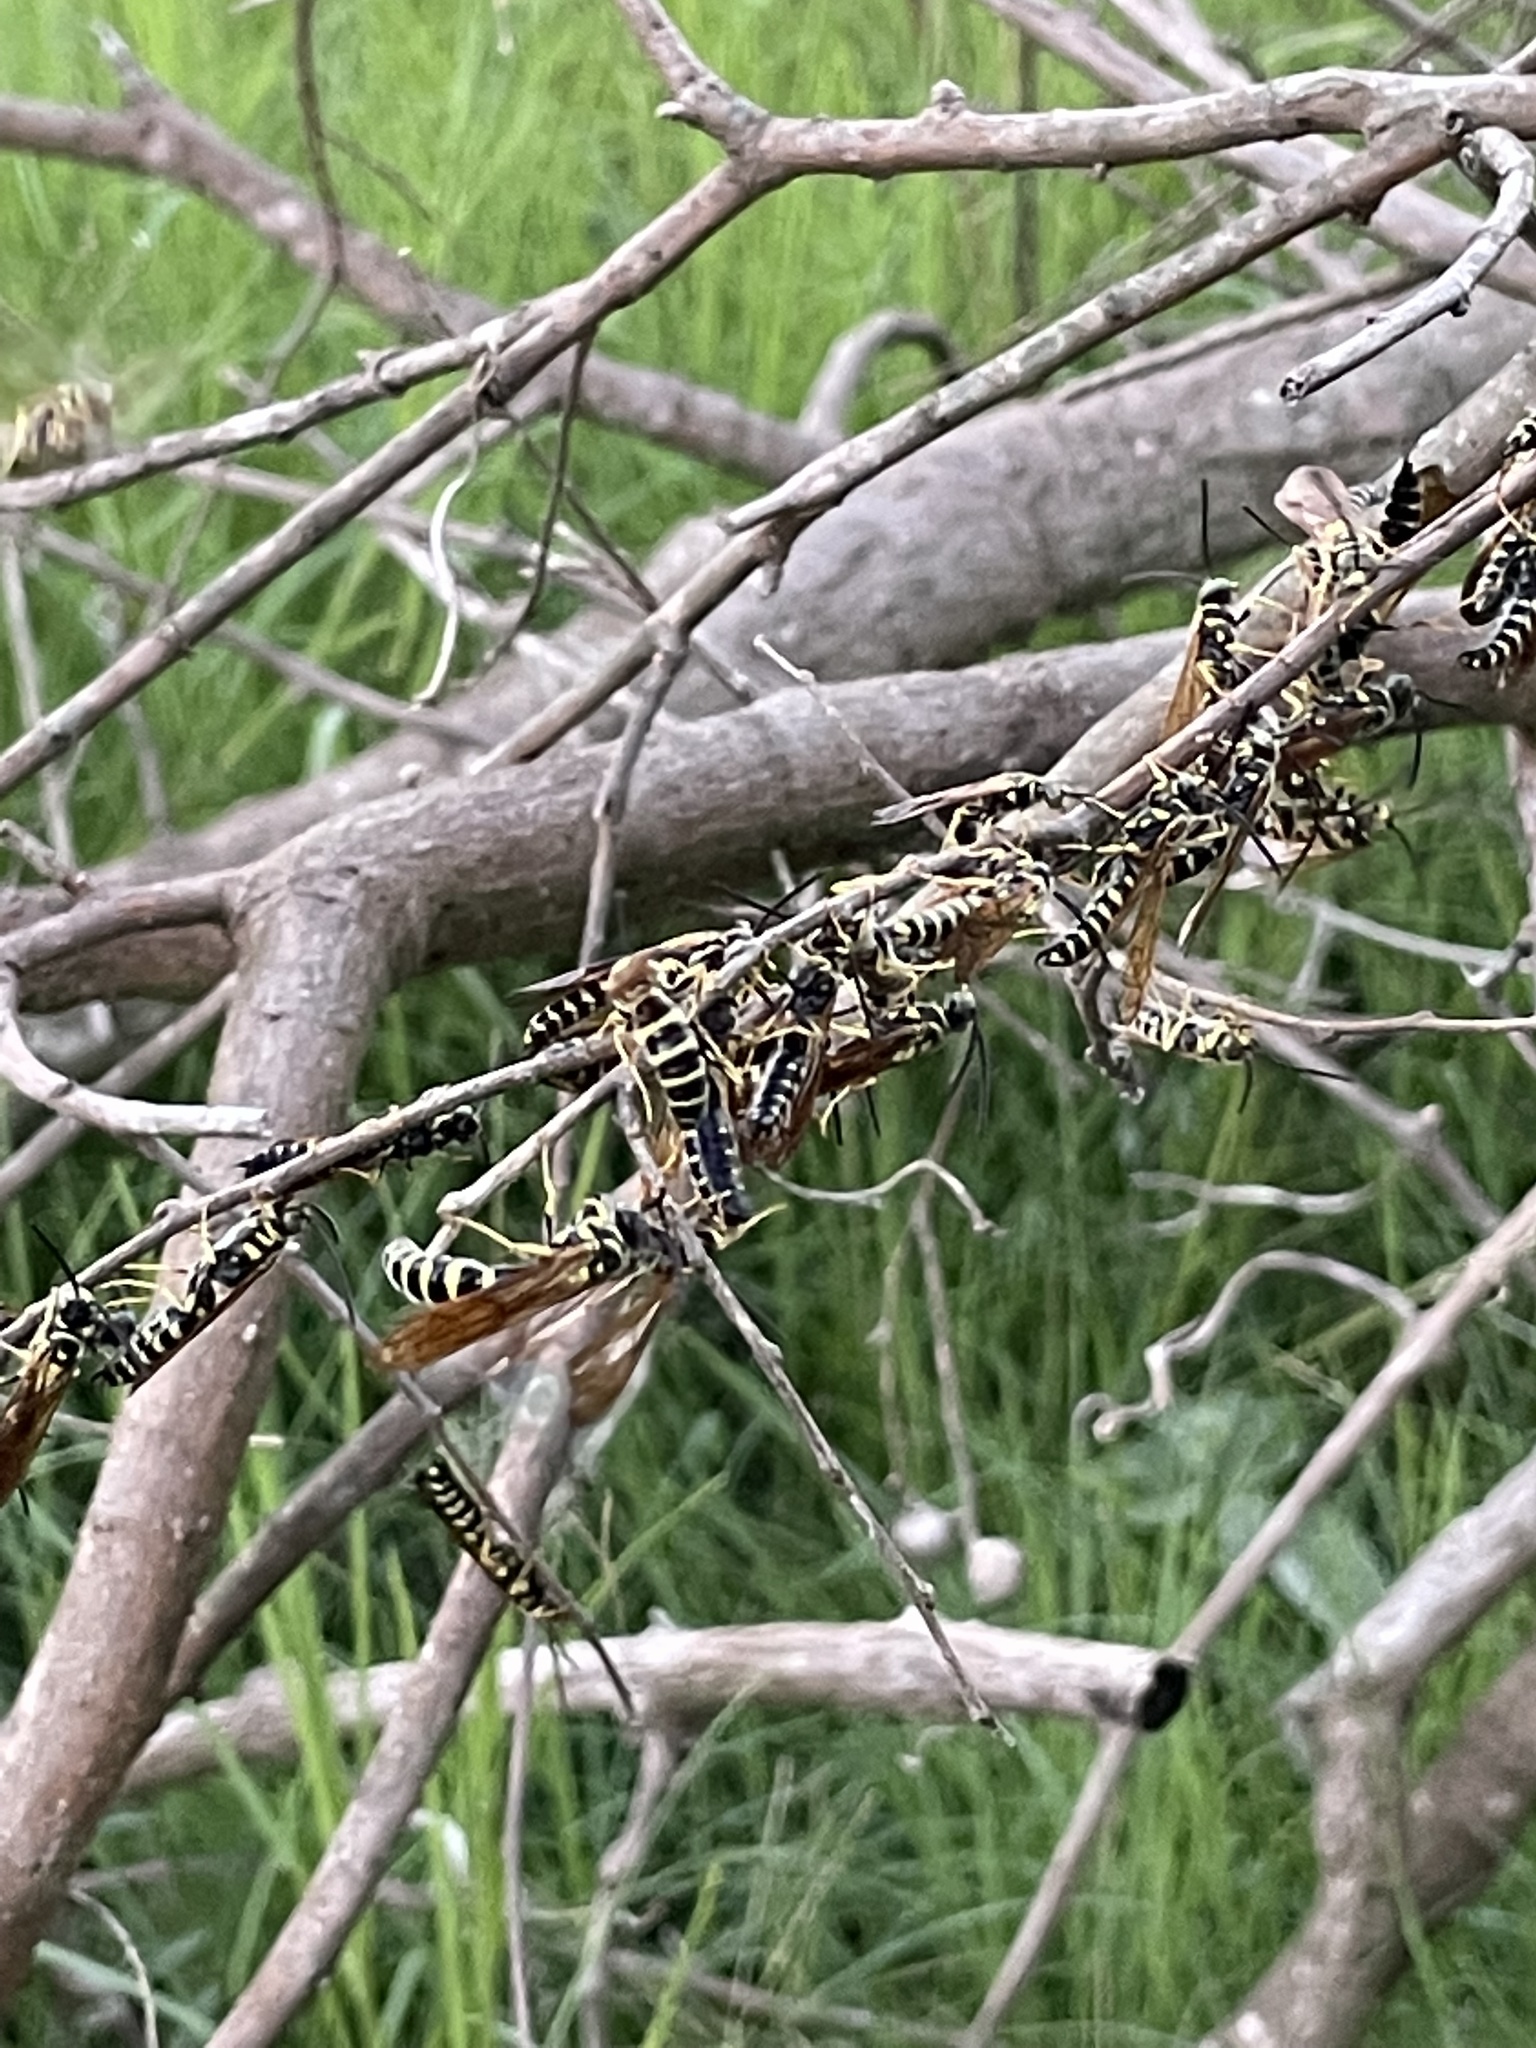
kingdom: Animalia
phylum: Arthropoda
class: Insecta
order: Hymenoptera
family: Tiphiidae
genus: Myzinum
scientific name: Myzinum quinquecinctum
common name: Five-banded thynnid wasp
